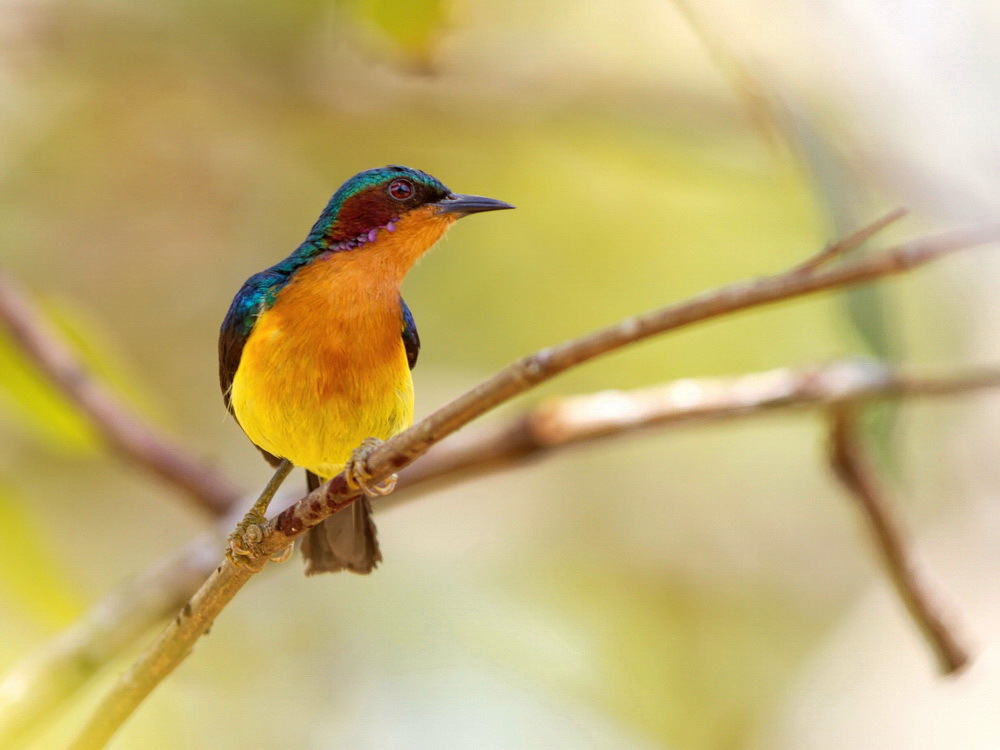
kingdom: Animalia
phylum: Chordata
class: Aves
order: Passeriformes
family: Nectariniidae
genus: Chalcoparia
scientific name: Chalcoparia singalensis
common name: Ruby-cheeked sunbird
